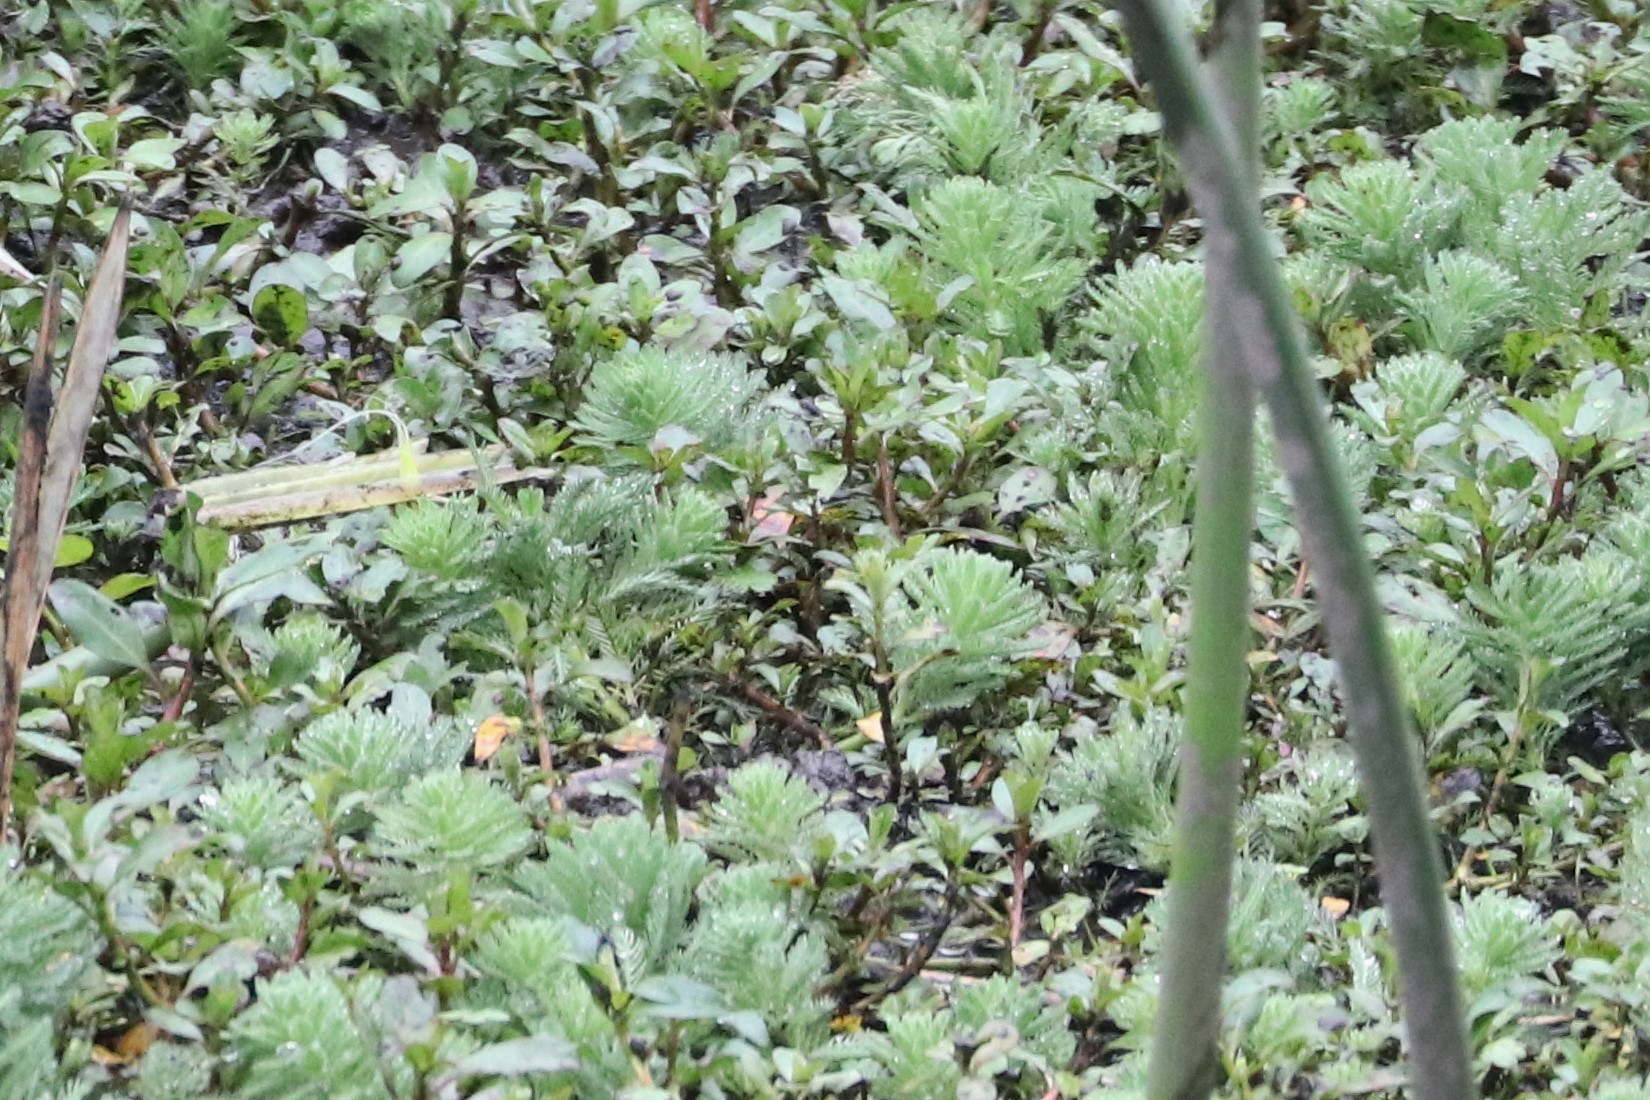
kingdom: Plantae
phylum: Tracheophyta
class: Magnoliopsida
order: Saxifragales
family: Haloragaceae
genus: Myriophyllum
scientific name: Myriophyllum aquaticum
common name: Parrot's feather
